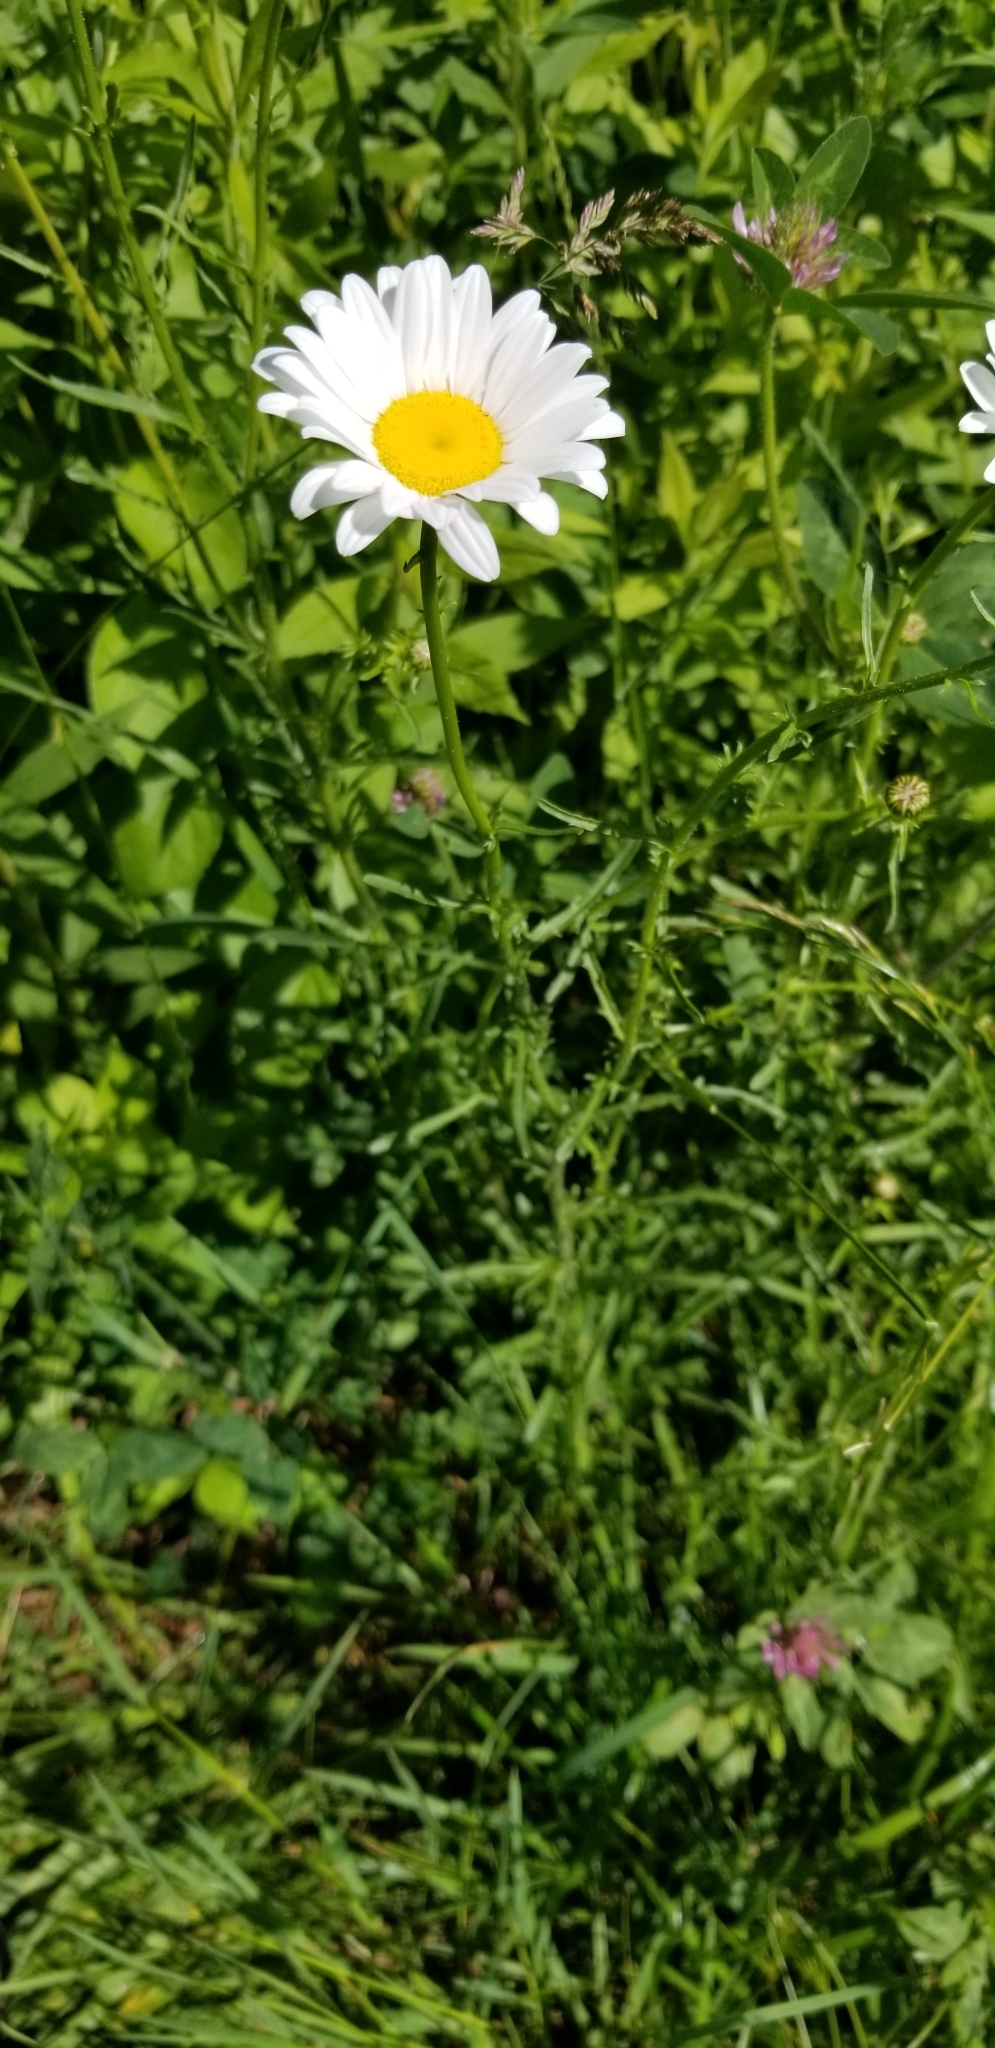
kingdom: Plantae
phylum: Tracheophyta
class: Magnoliopsida
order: Asterales
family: Asteraceae
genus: Leucanthemum
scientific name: Leucanthemum vulgare
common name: Oxeye daisy
